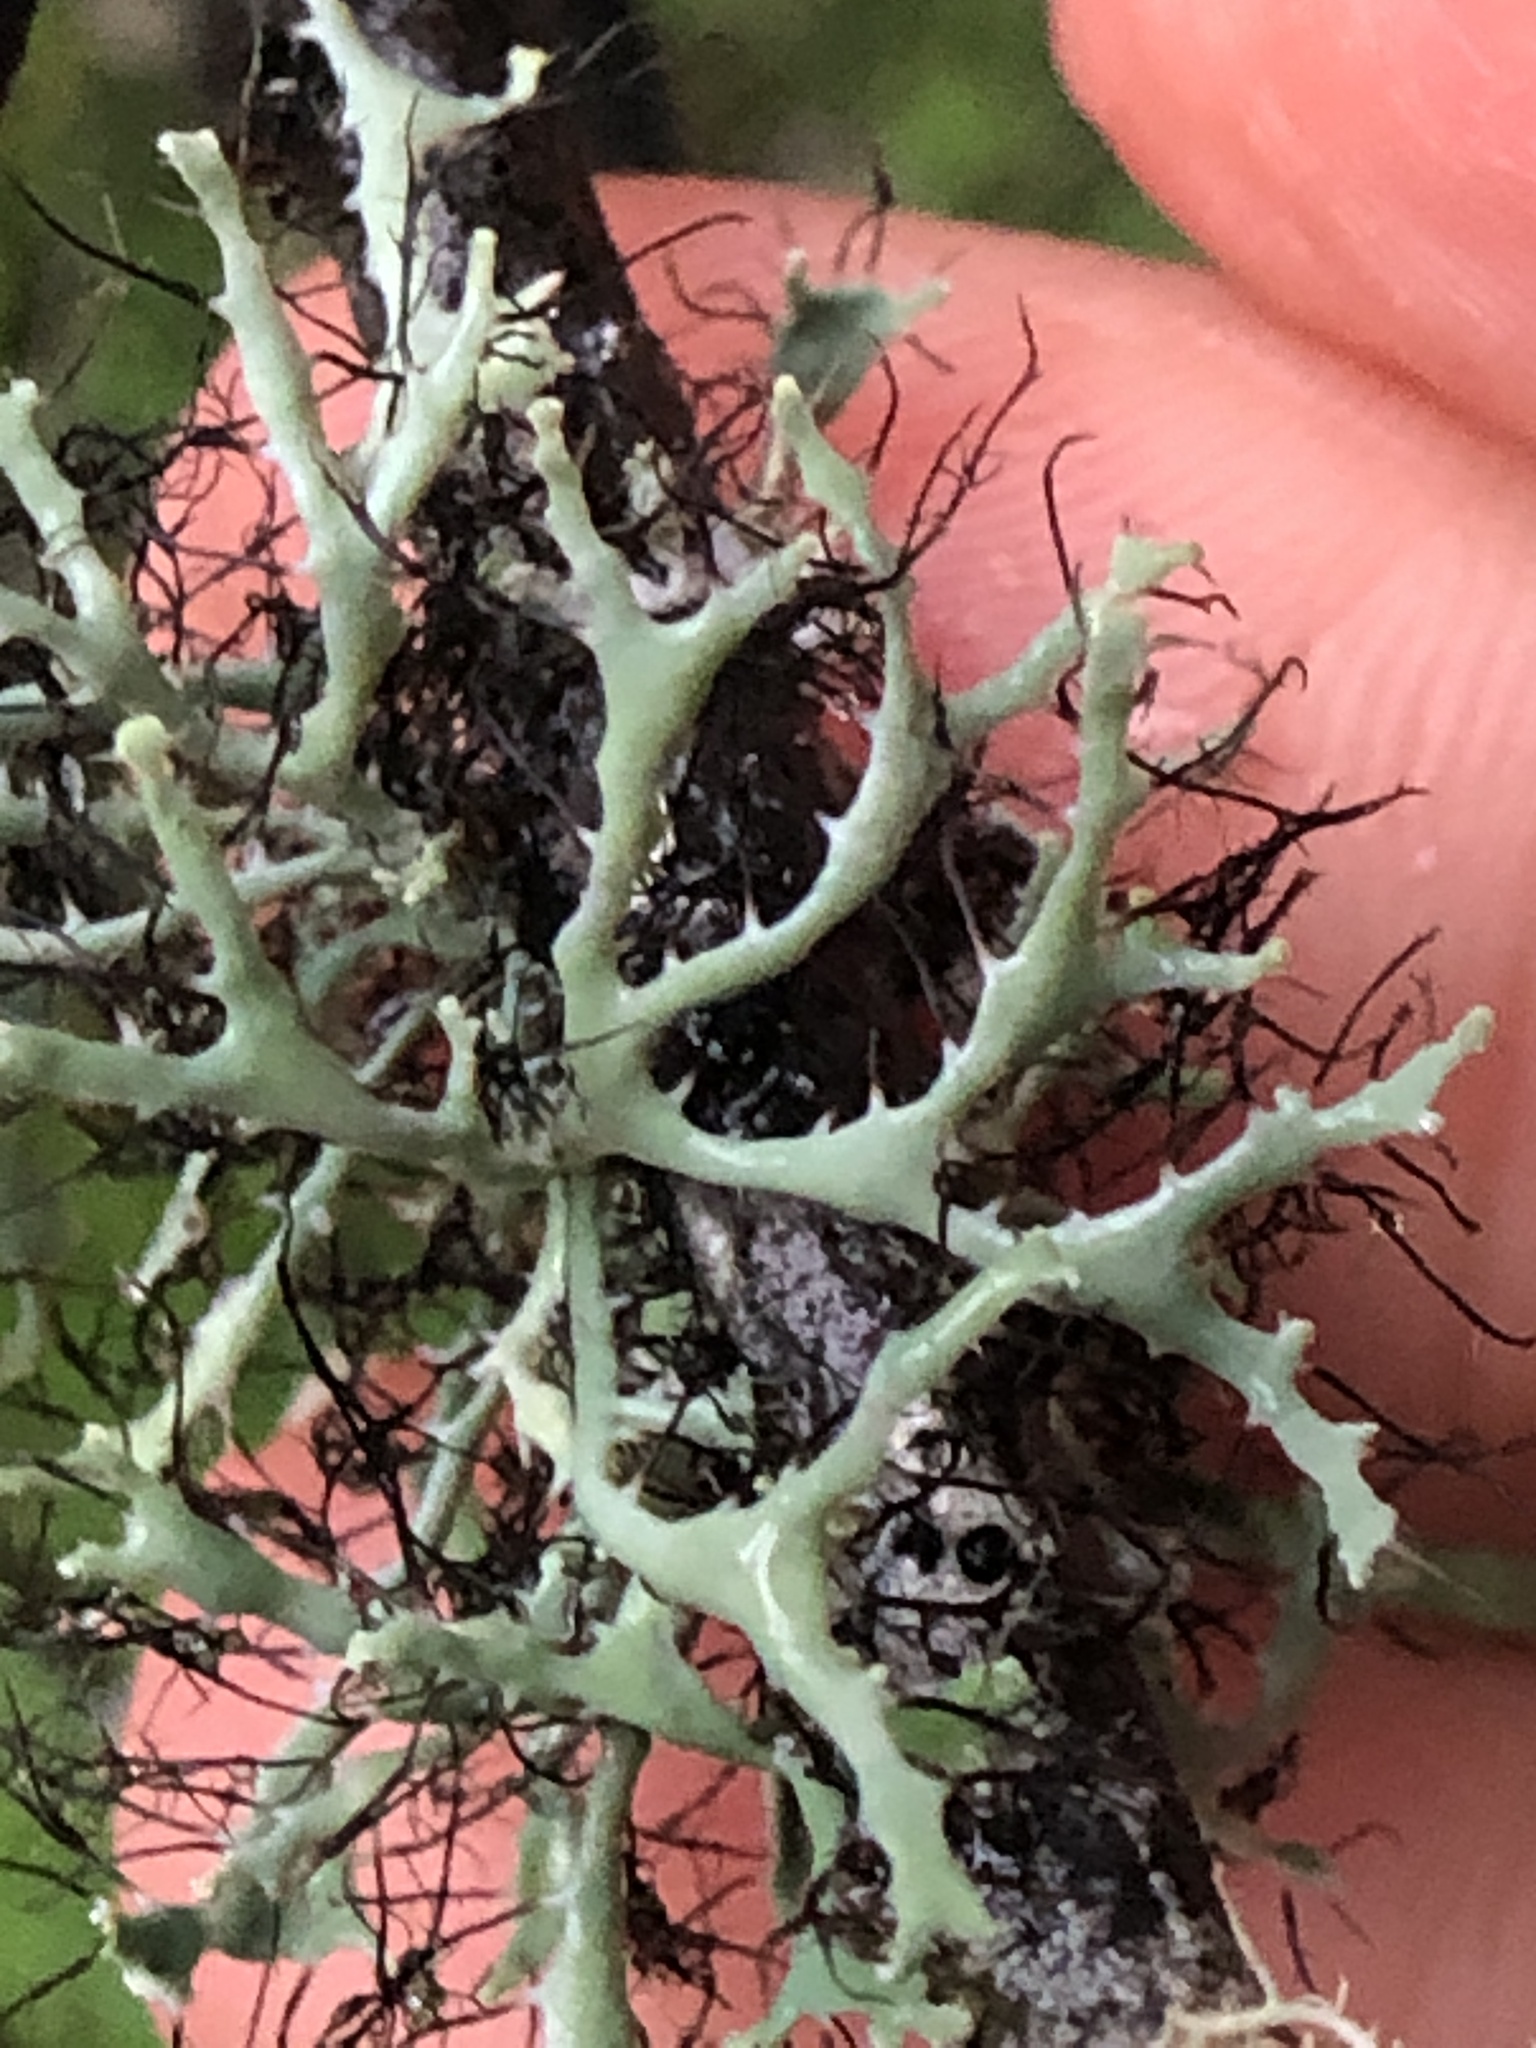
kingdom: Fungi
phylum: Ascomycota
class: Lecanoromycetes
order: Caliciales
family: Physciaceae
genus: Leucodermia
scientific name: Leucodermia leucomelos
